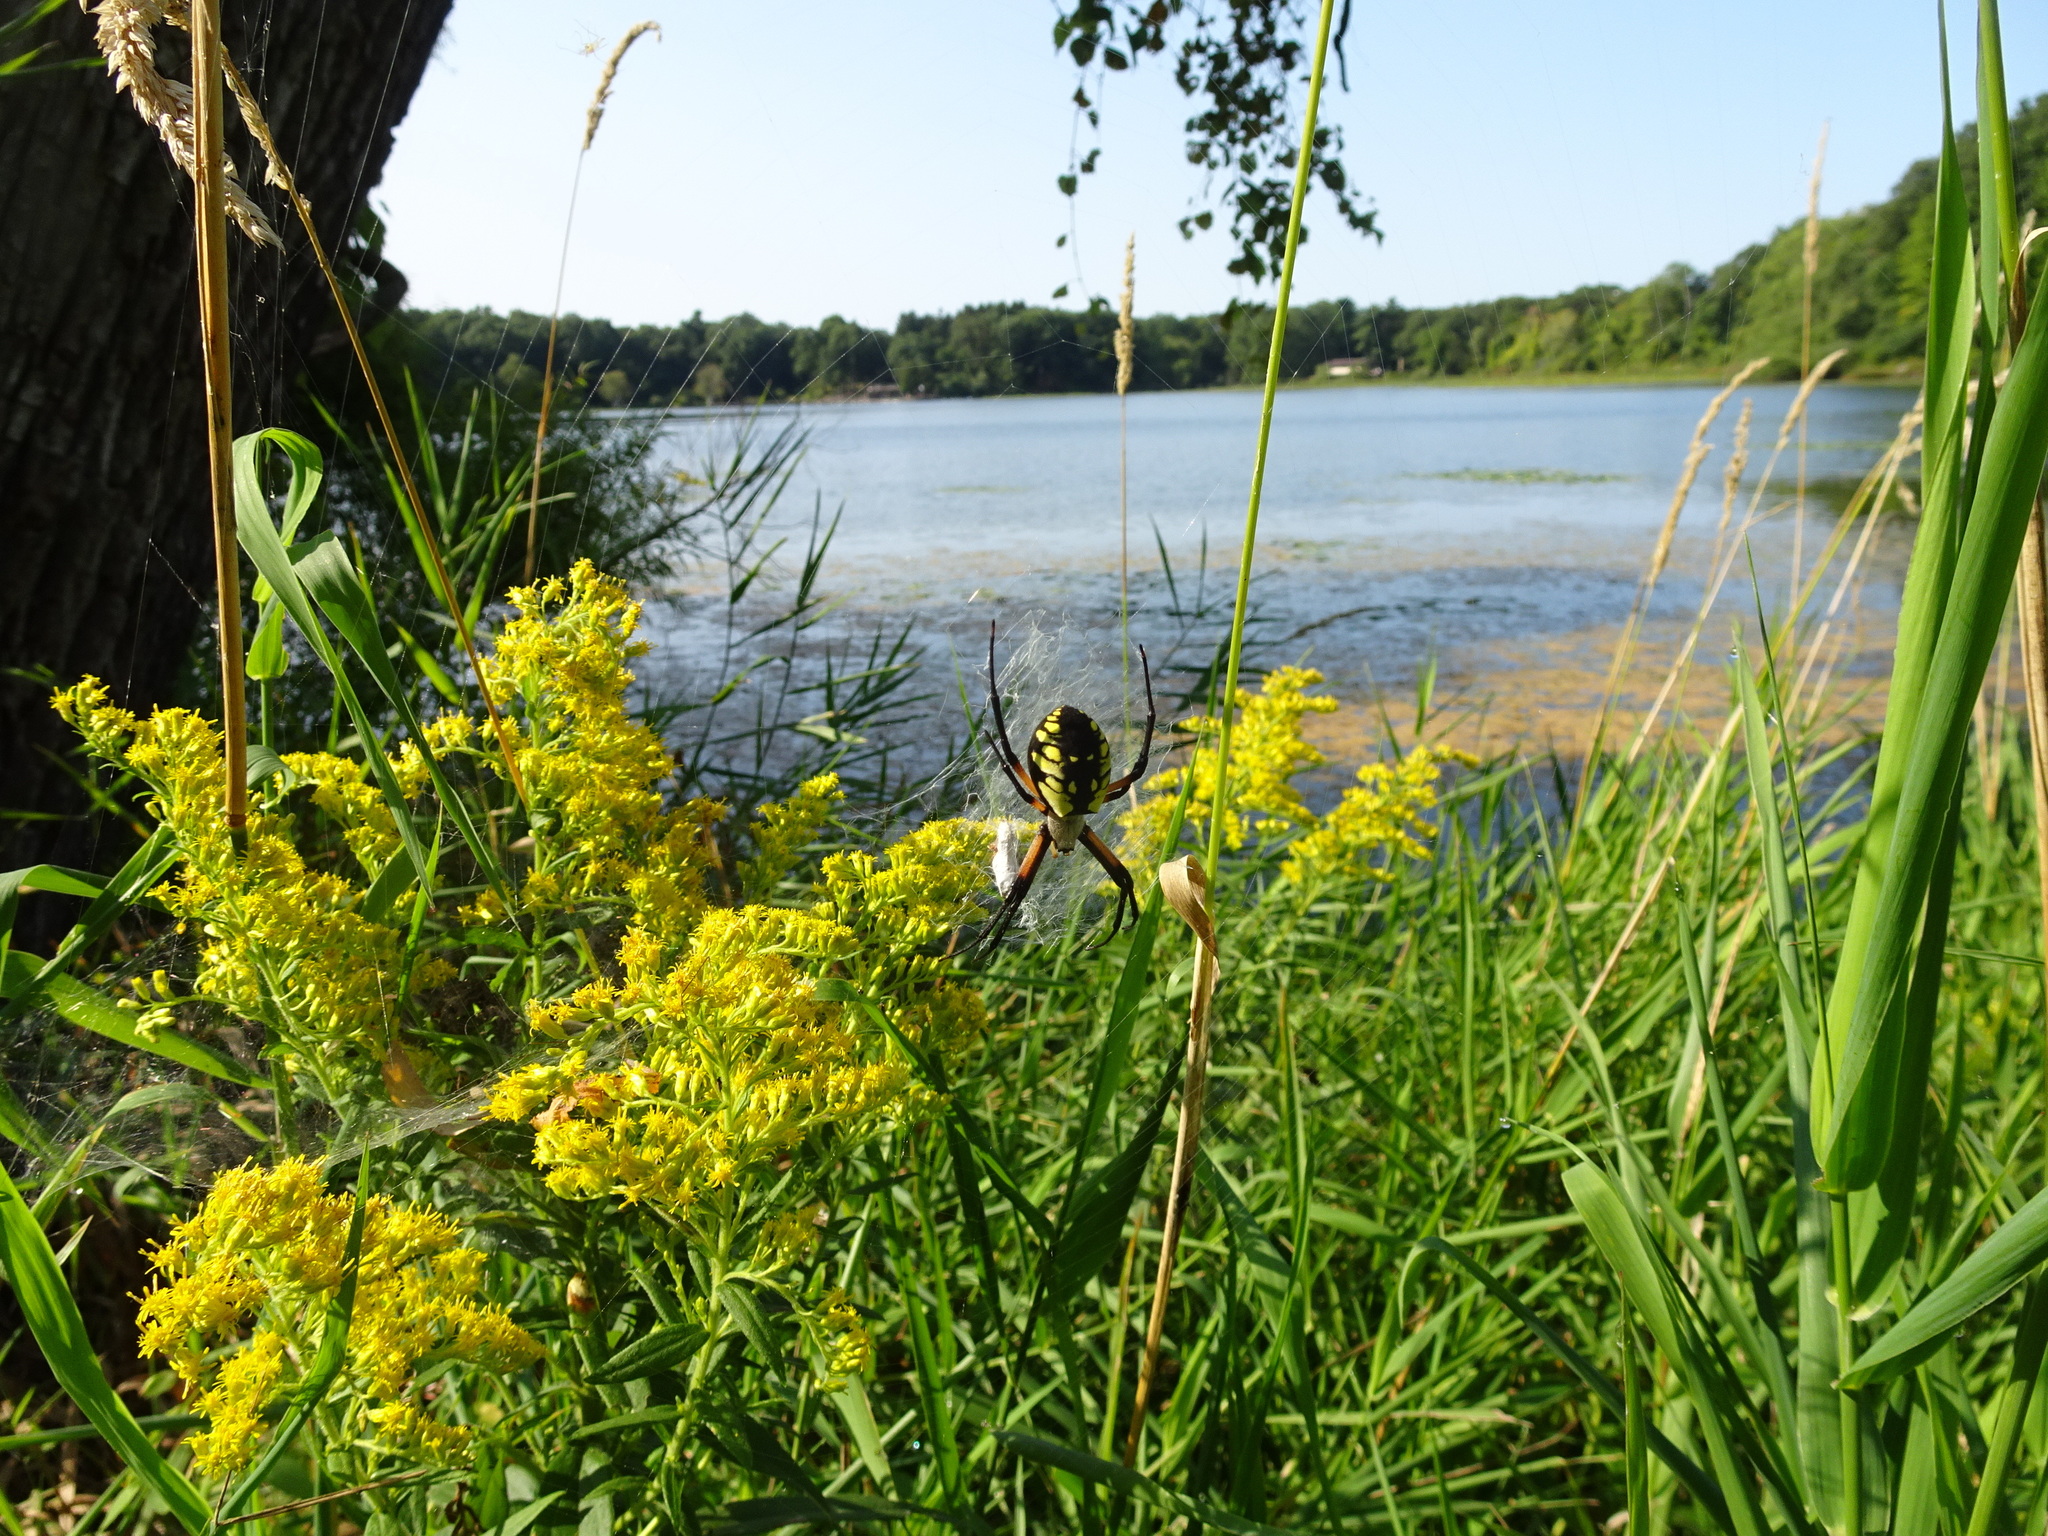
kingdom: Animalia
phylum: Arthropoda
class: Arachnida
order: Araneae
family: Araneidae
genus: Argiope
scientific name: Argiope aurantia
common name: Orb weavers
